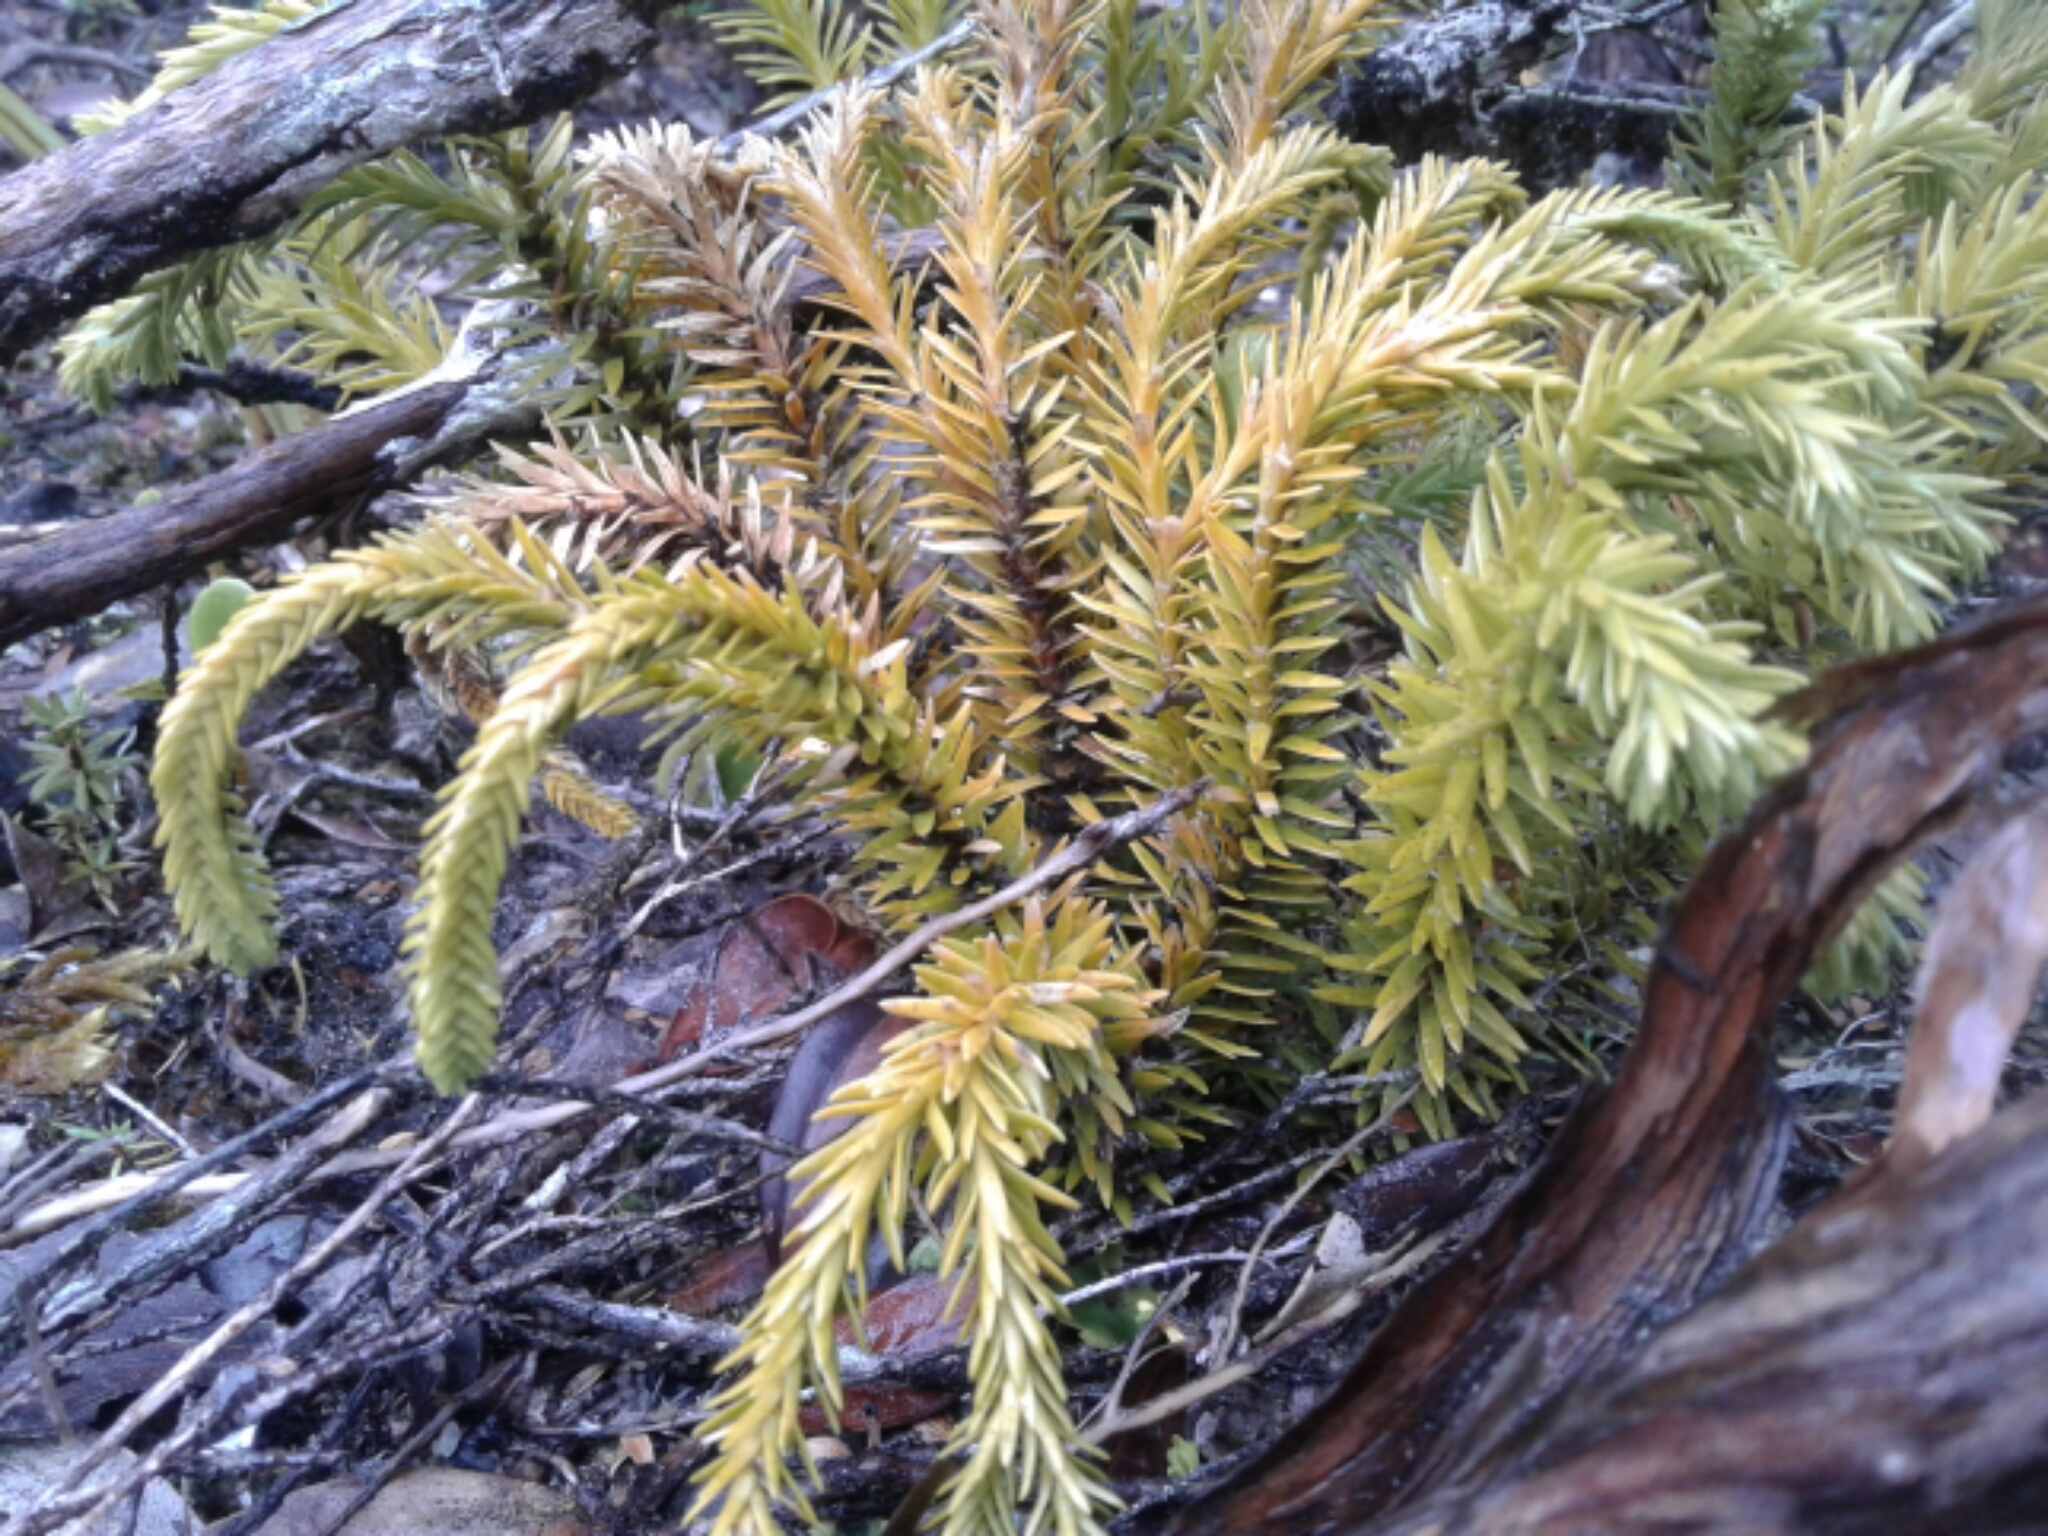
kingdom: Plantae
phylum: Tracheophyta
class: Lycopodiopsida
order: Lycopodiales
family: Lycopodiaceae
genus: Phlegmariurus
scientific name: Phlegmariurus varius
